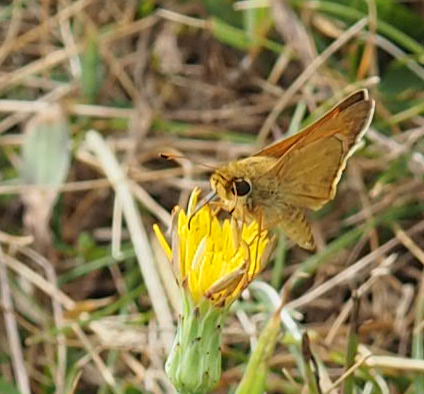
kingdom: Animalia
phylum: Arthropoda
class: Insecta
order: Lepidoptera
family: Hesperiidae
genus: Atalopedes
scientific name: Atalopedes
